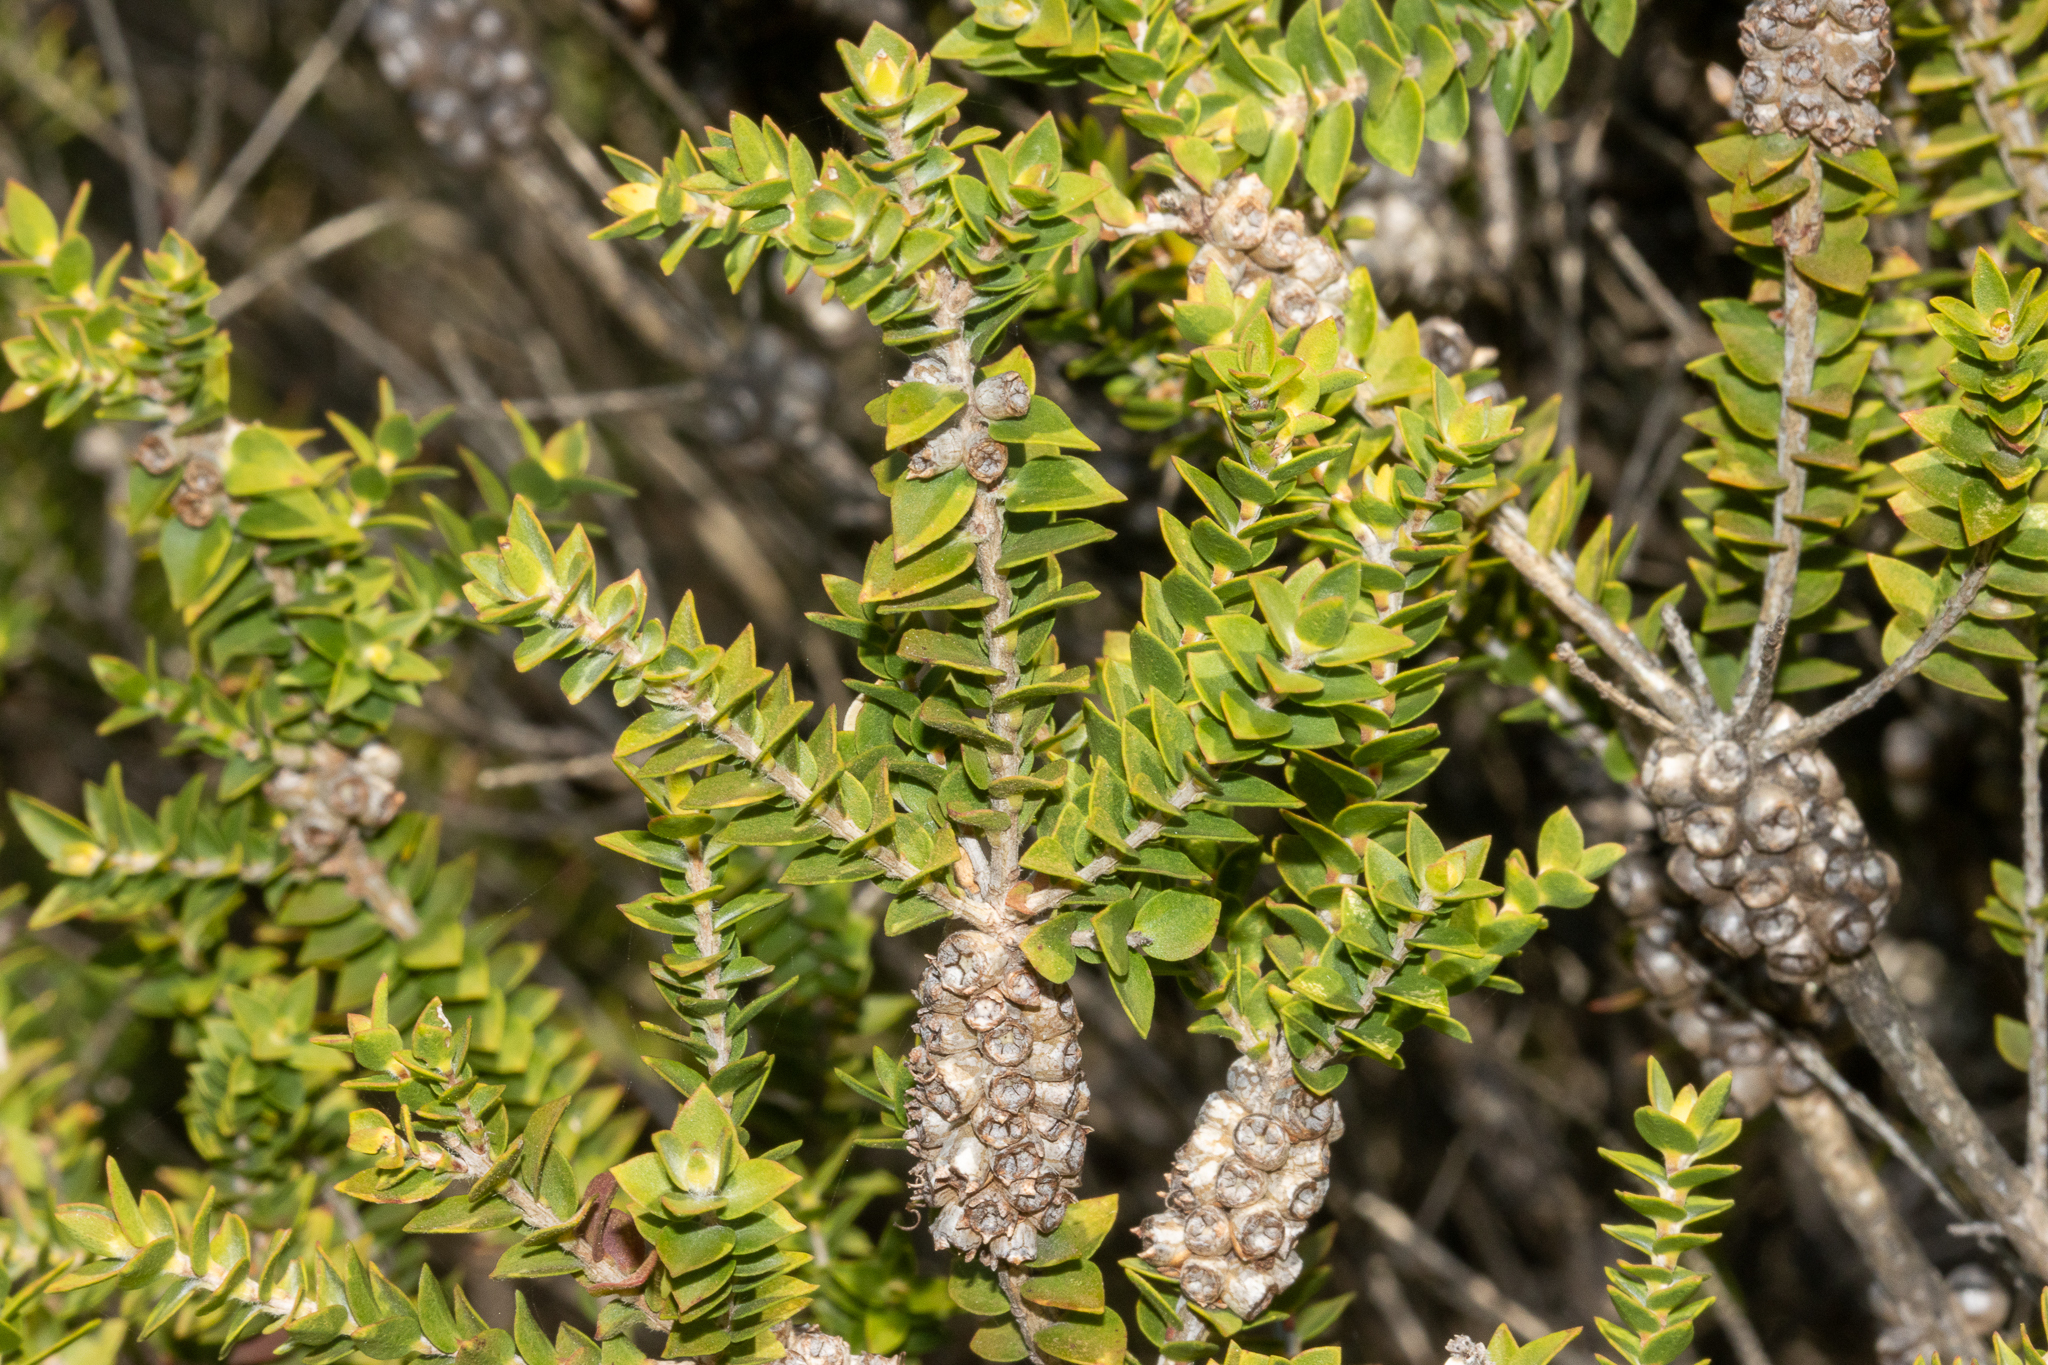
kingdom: Plantae
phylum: Tracheophyta
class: Magnoliopsida
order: Myrtales
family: Myrtaceae
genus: Melaleuca
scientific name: Melaleuca squarrosa
